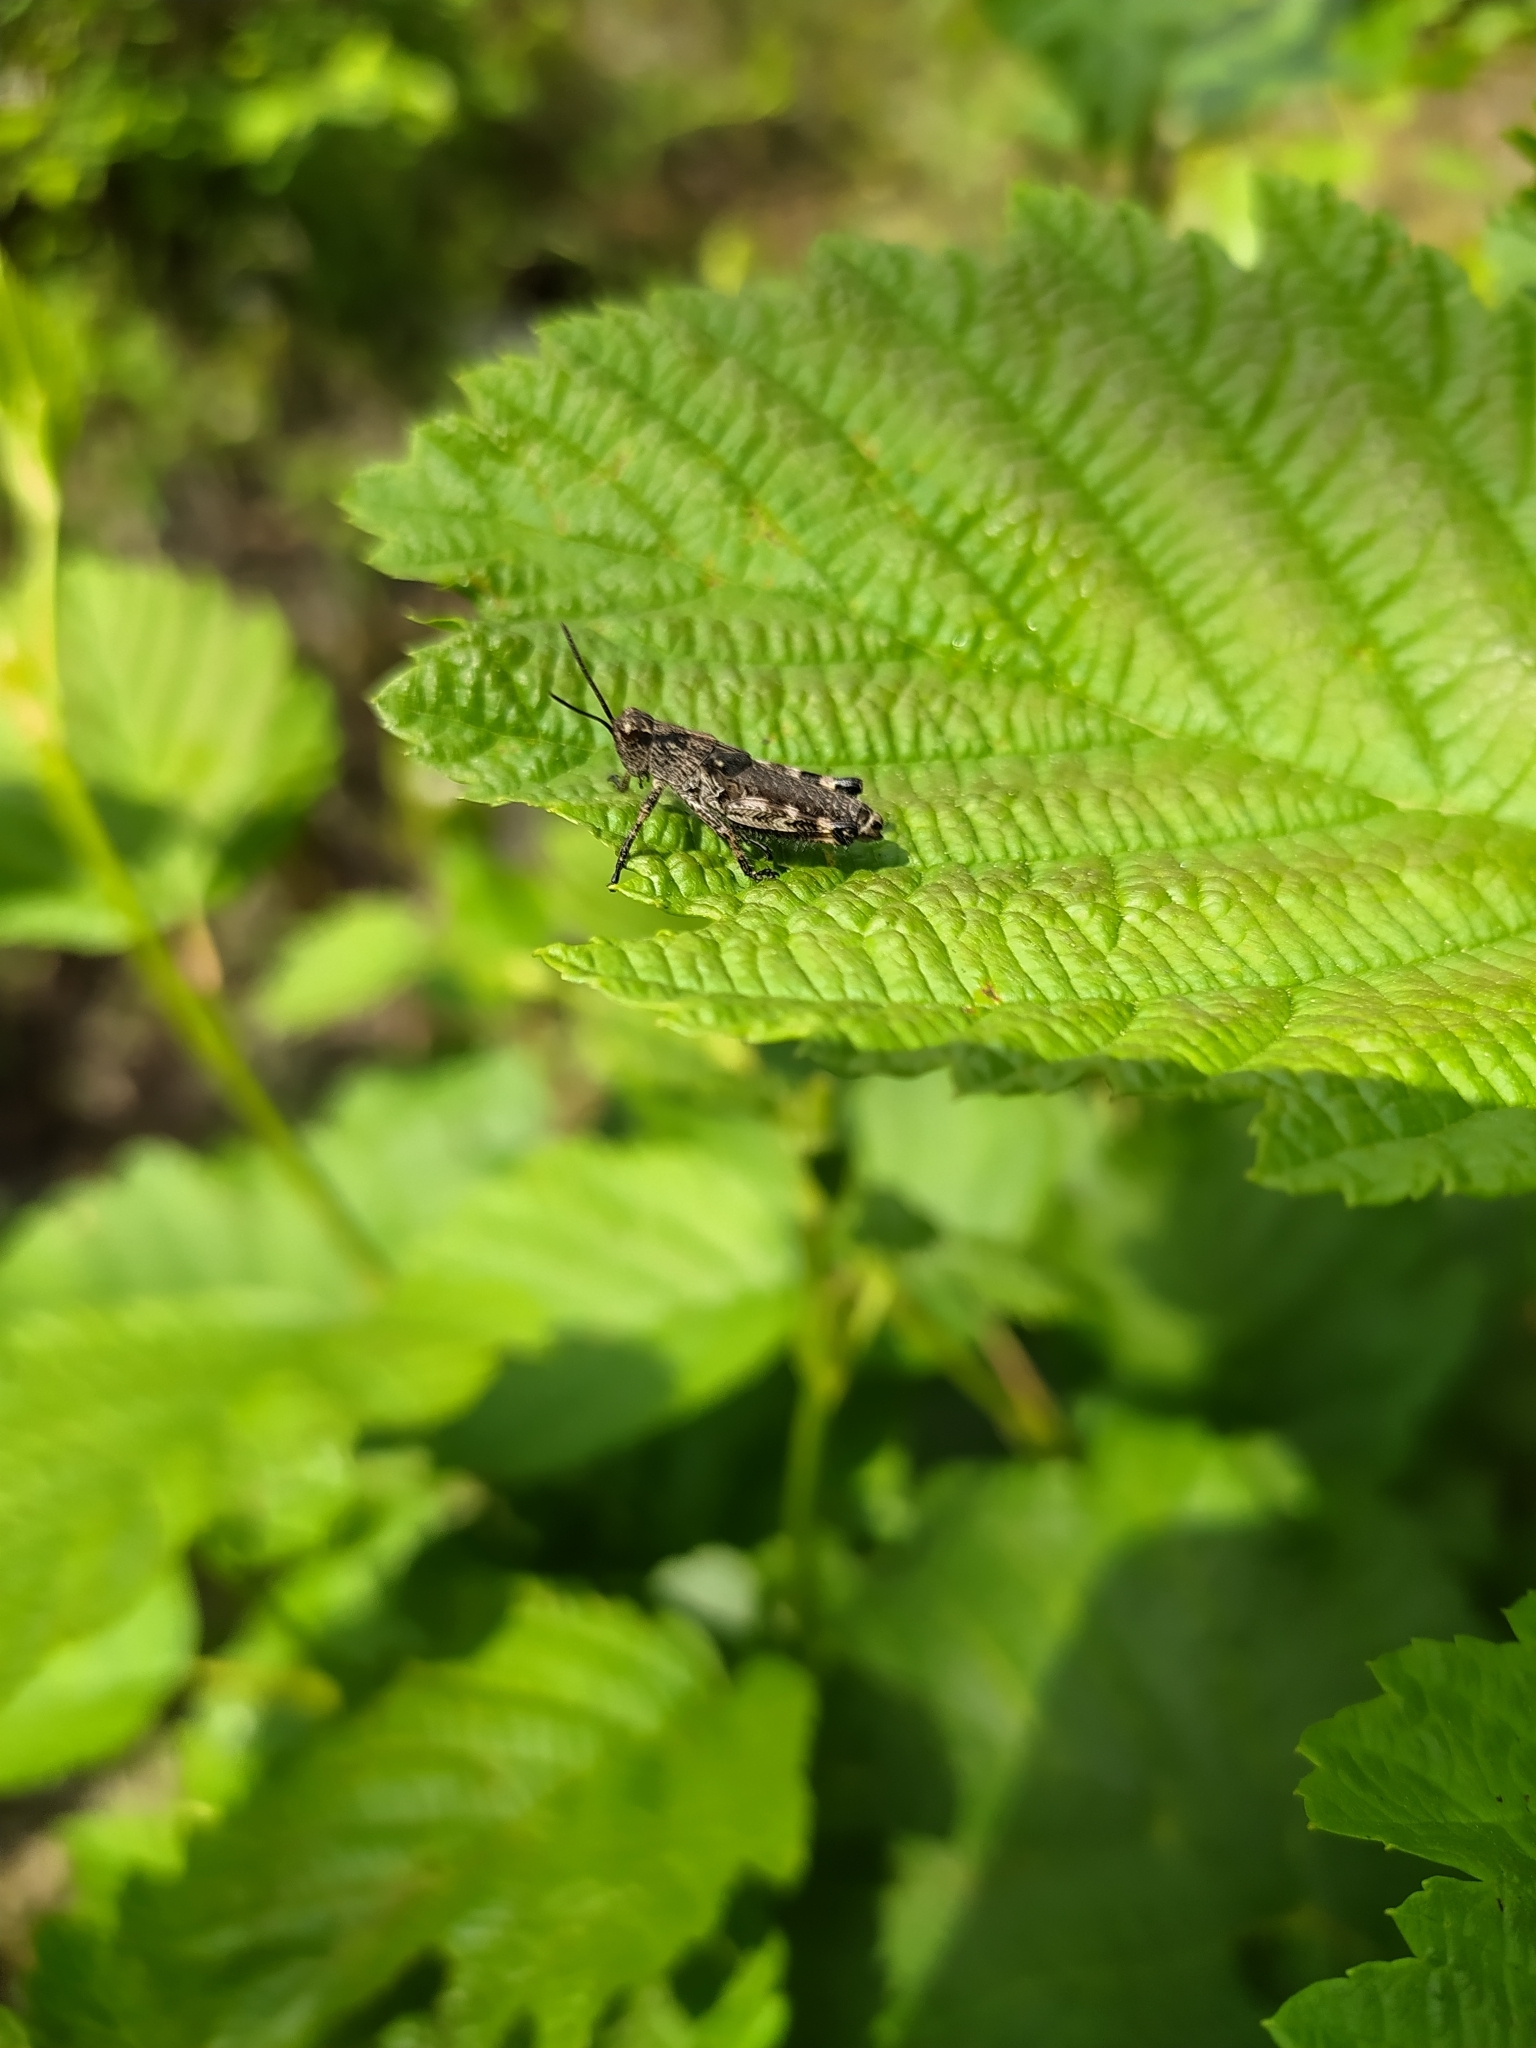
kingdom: Animalia
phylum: Arthropoda
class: Insecta
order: Orthoptera
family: Acrididae
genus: Podisma
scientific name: Podisma pedestris
